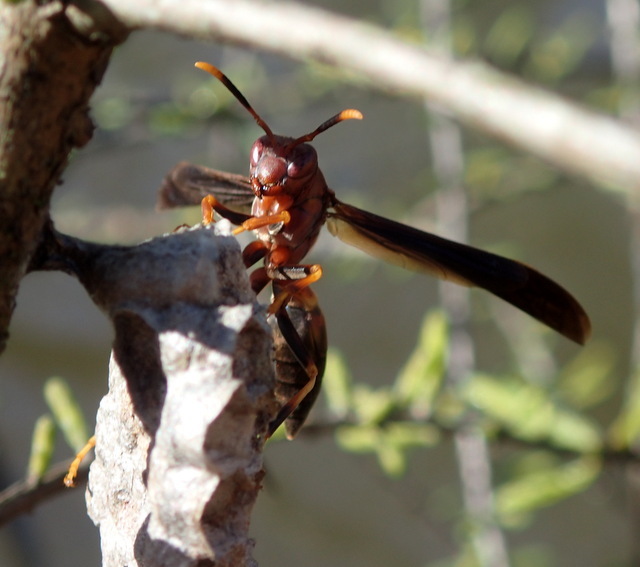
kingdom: Animalia
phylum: Arthropoda
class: Insecta
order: Hymenoptera
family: Eumenidae
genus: Polistes
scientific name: Polistes annularis
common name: Ringed paper wasp
